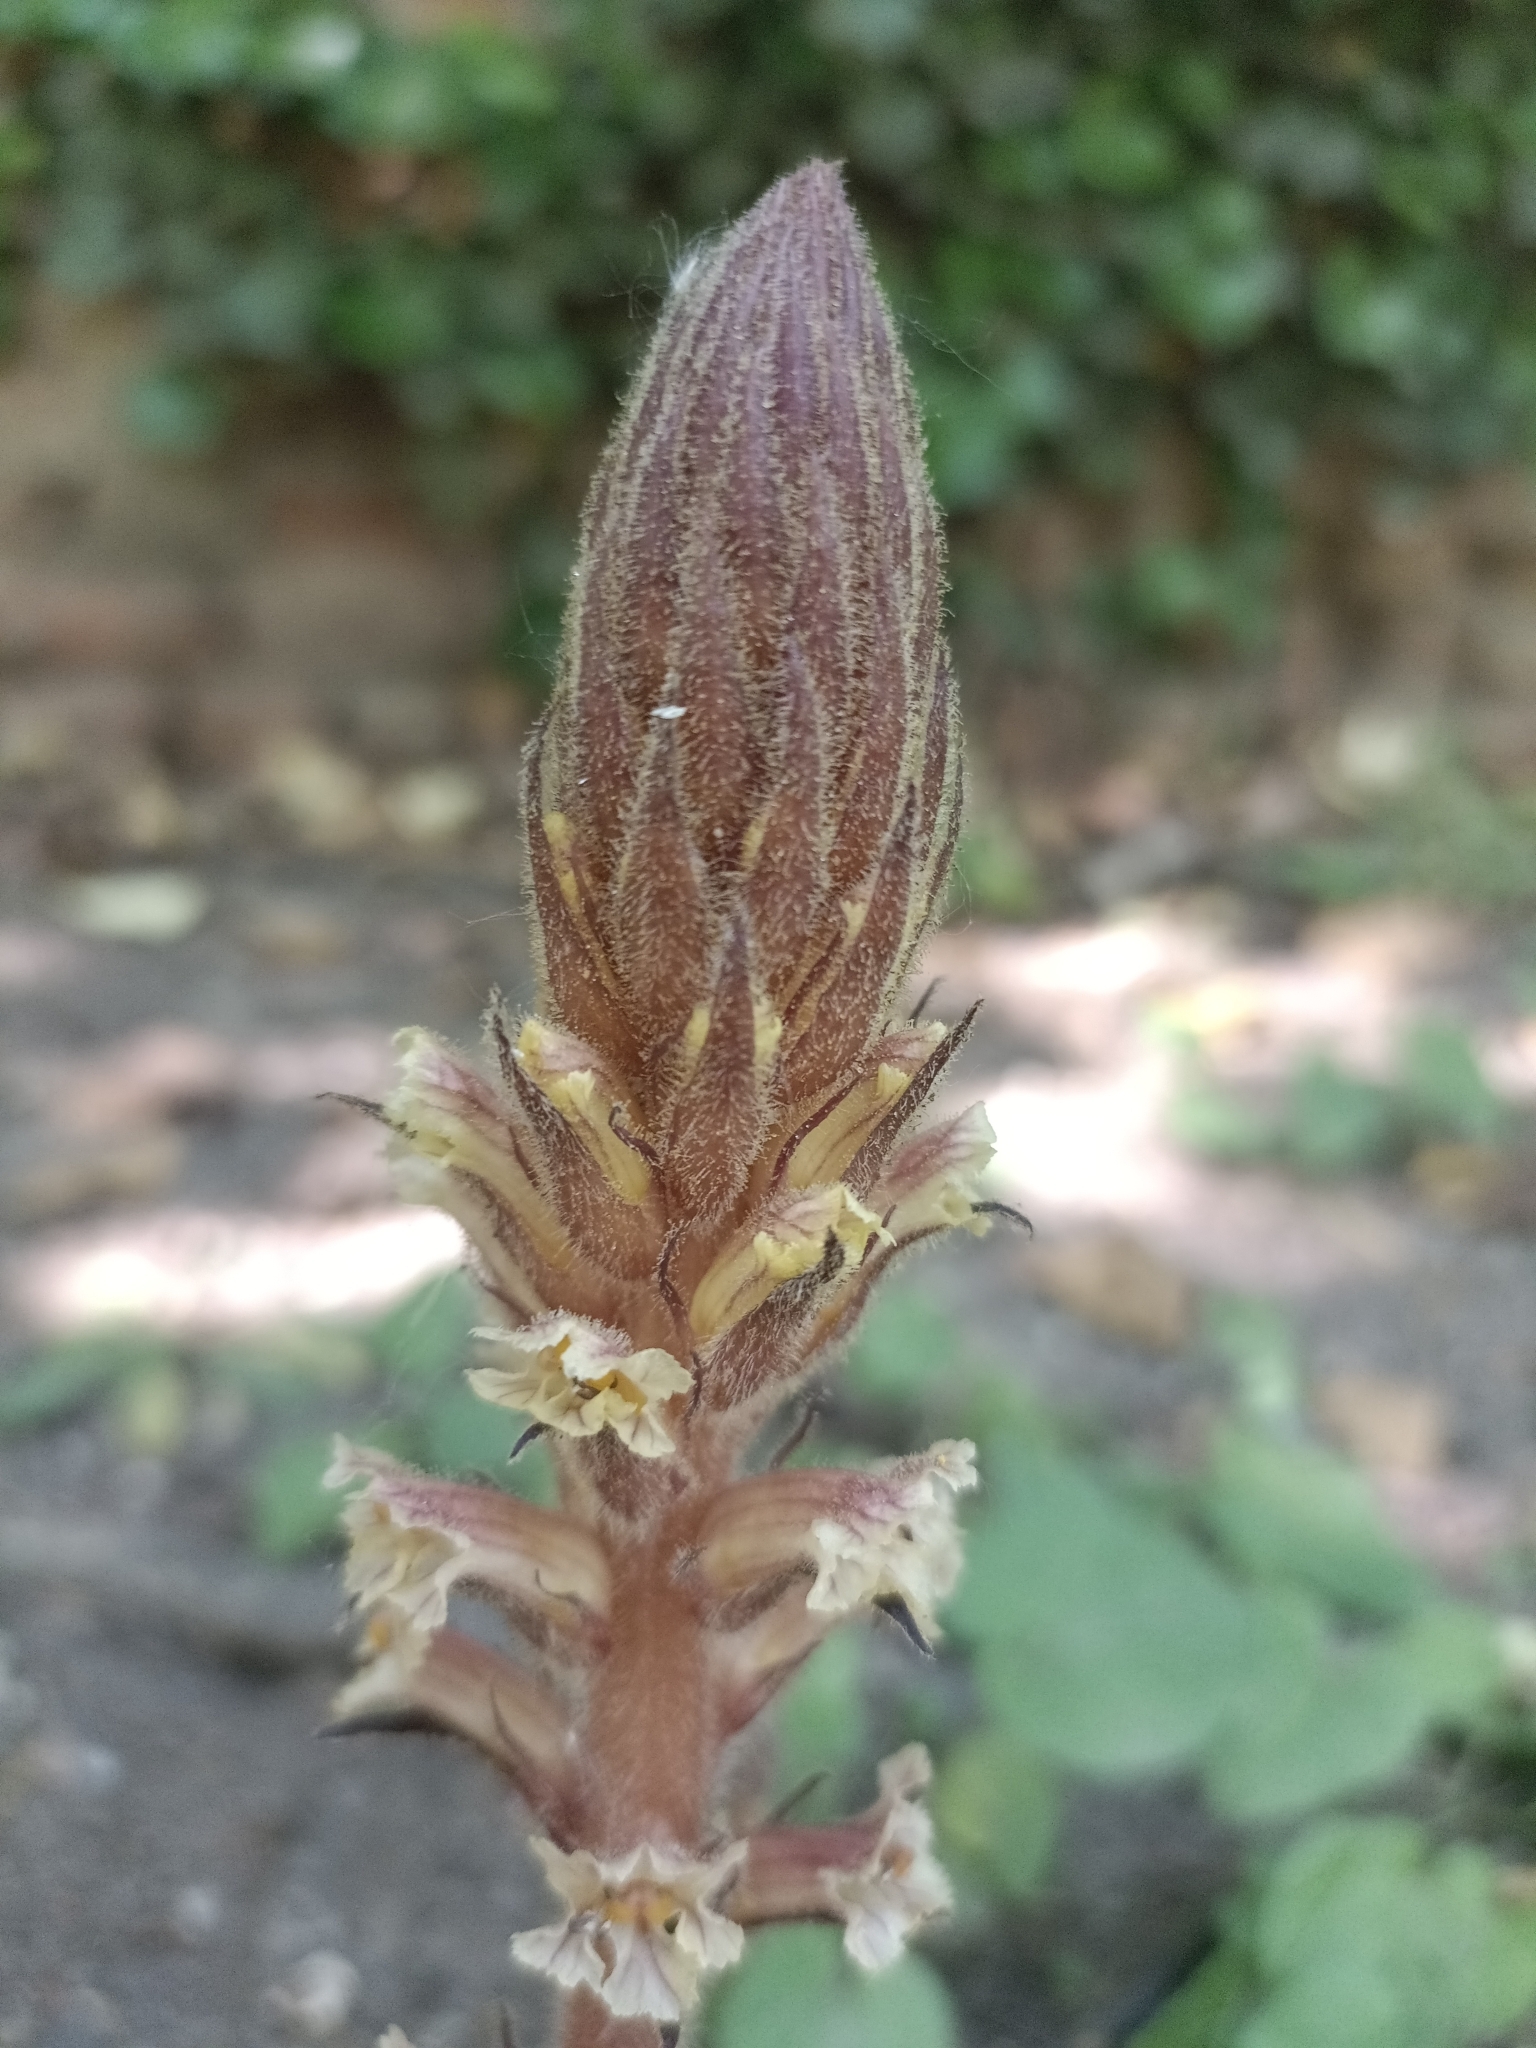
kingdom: Plantae
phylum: Tracheophyta
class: Magnoliopsida
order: Lamiales
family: Orobanchaceae
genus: Orobanche
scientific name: Orobanche hederae
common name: Ivy broomrape
